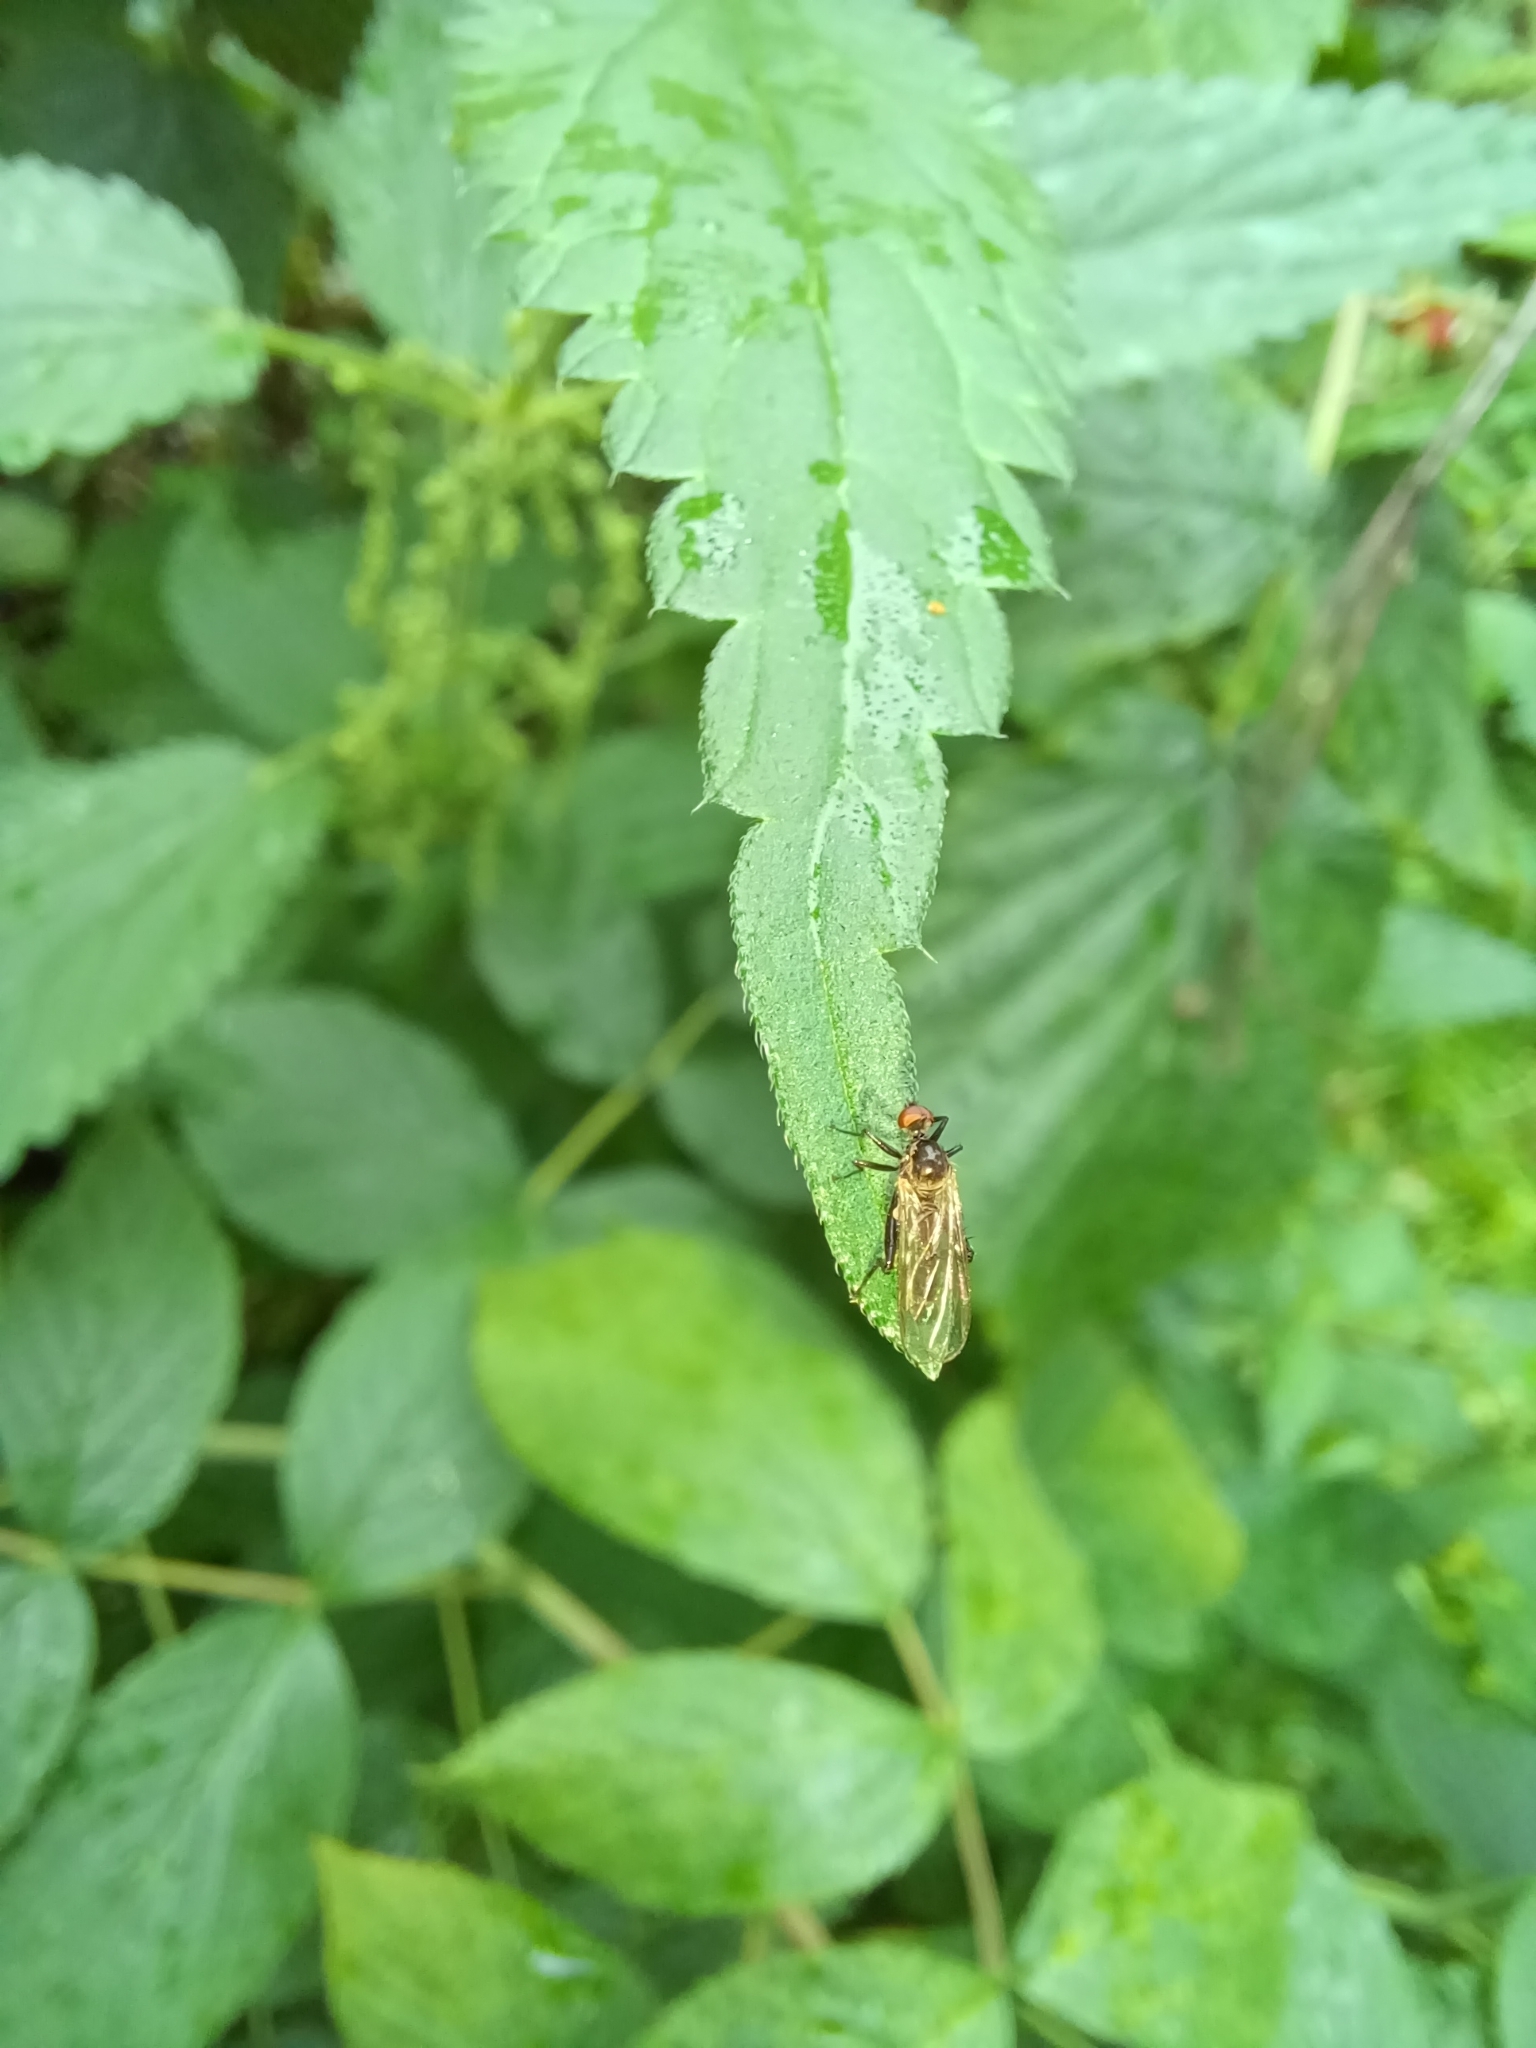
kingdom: Animalia
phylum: Arthropoda
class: Insecta
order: Diptera
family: Hybotidae
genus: Hybos
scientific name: Hybos culiciformis
